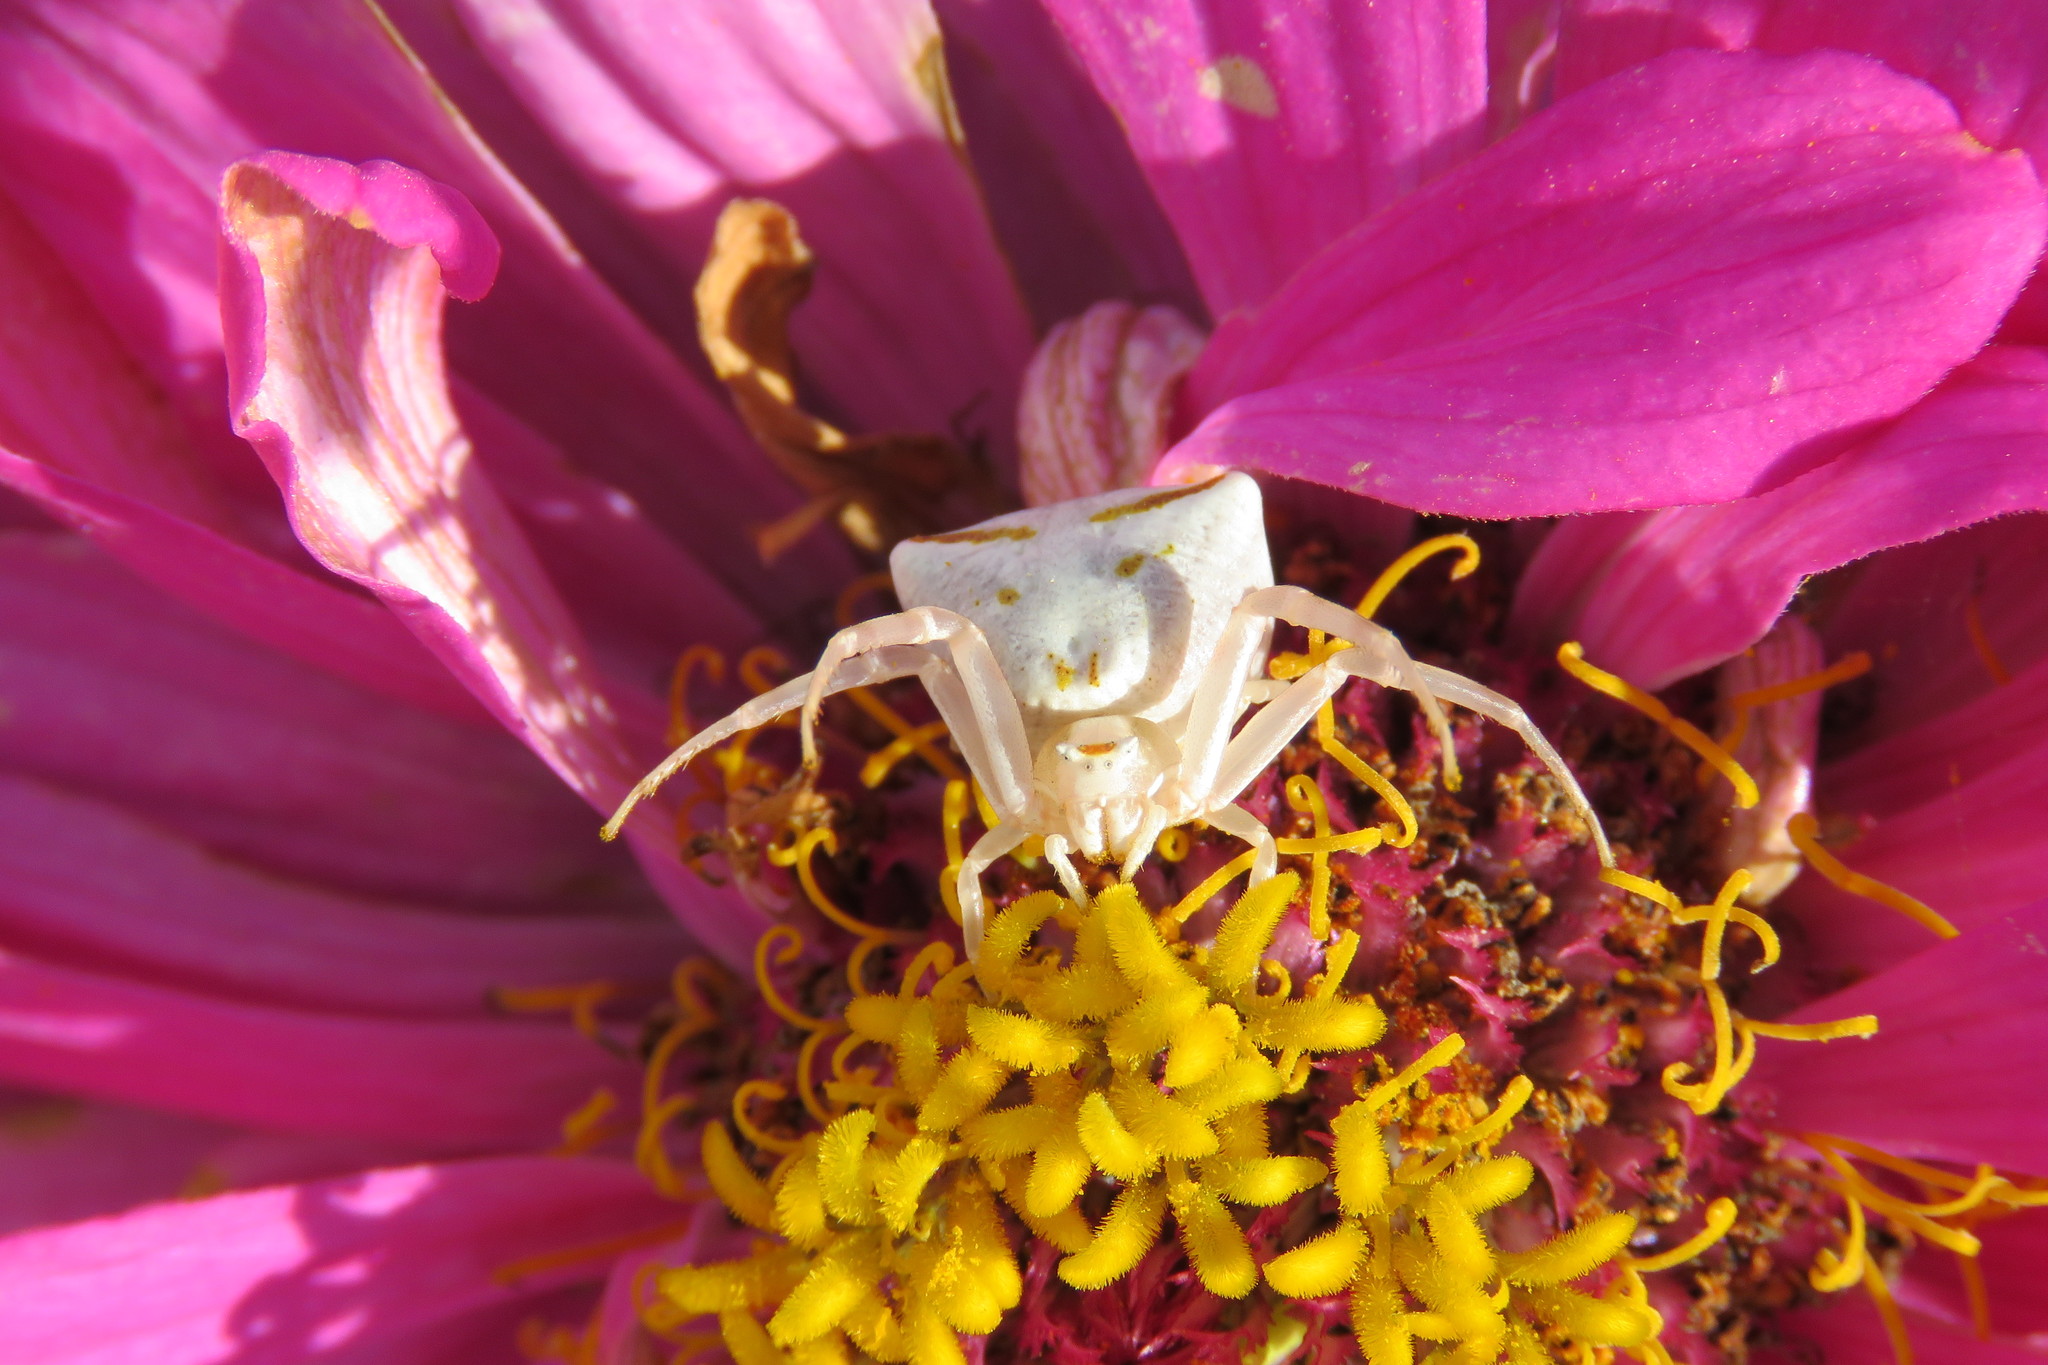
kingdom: Animalia
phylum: Arthropoda
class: Arachnida
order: Araneae
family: Thomisidae
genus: Thomisus
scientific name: Thomisus onustus
